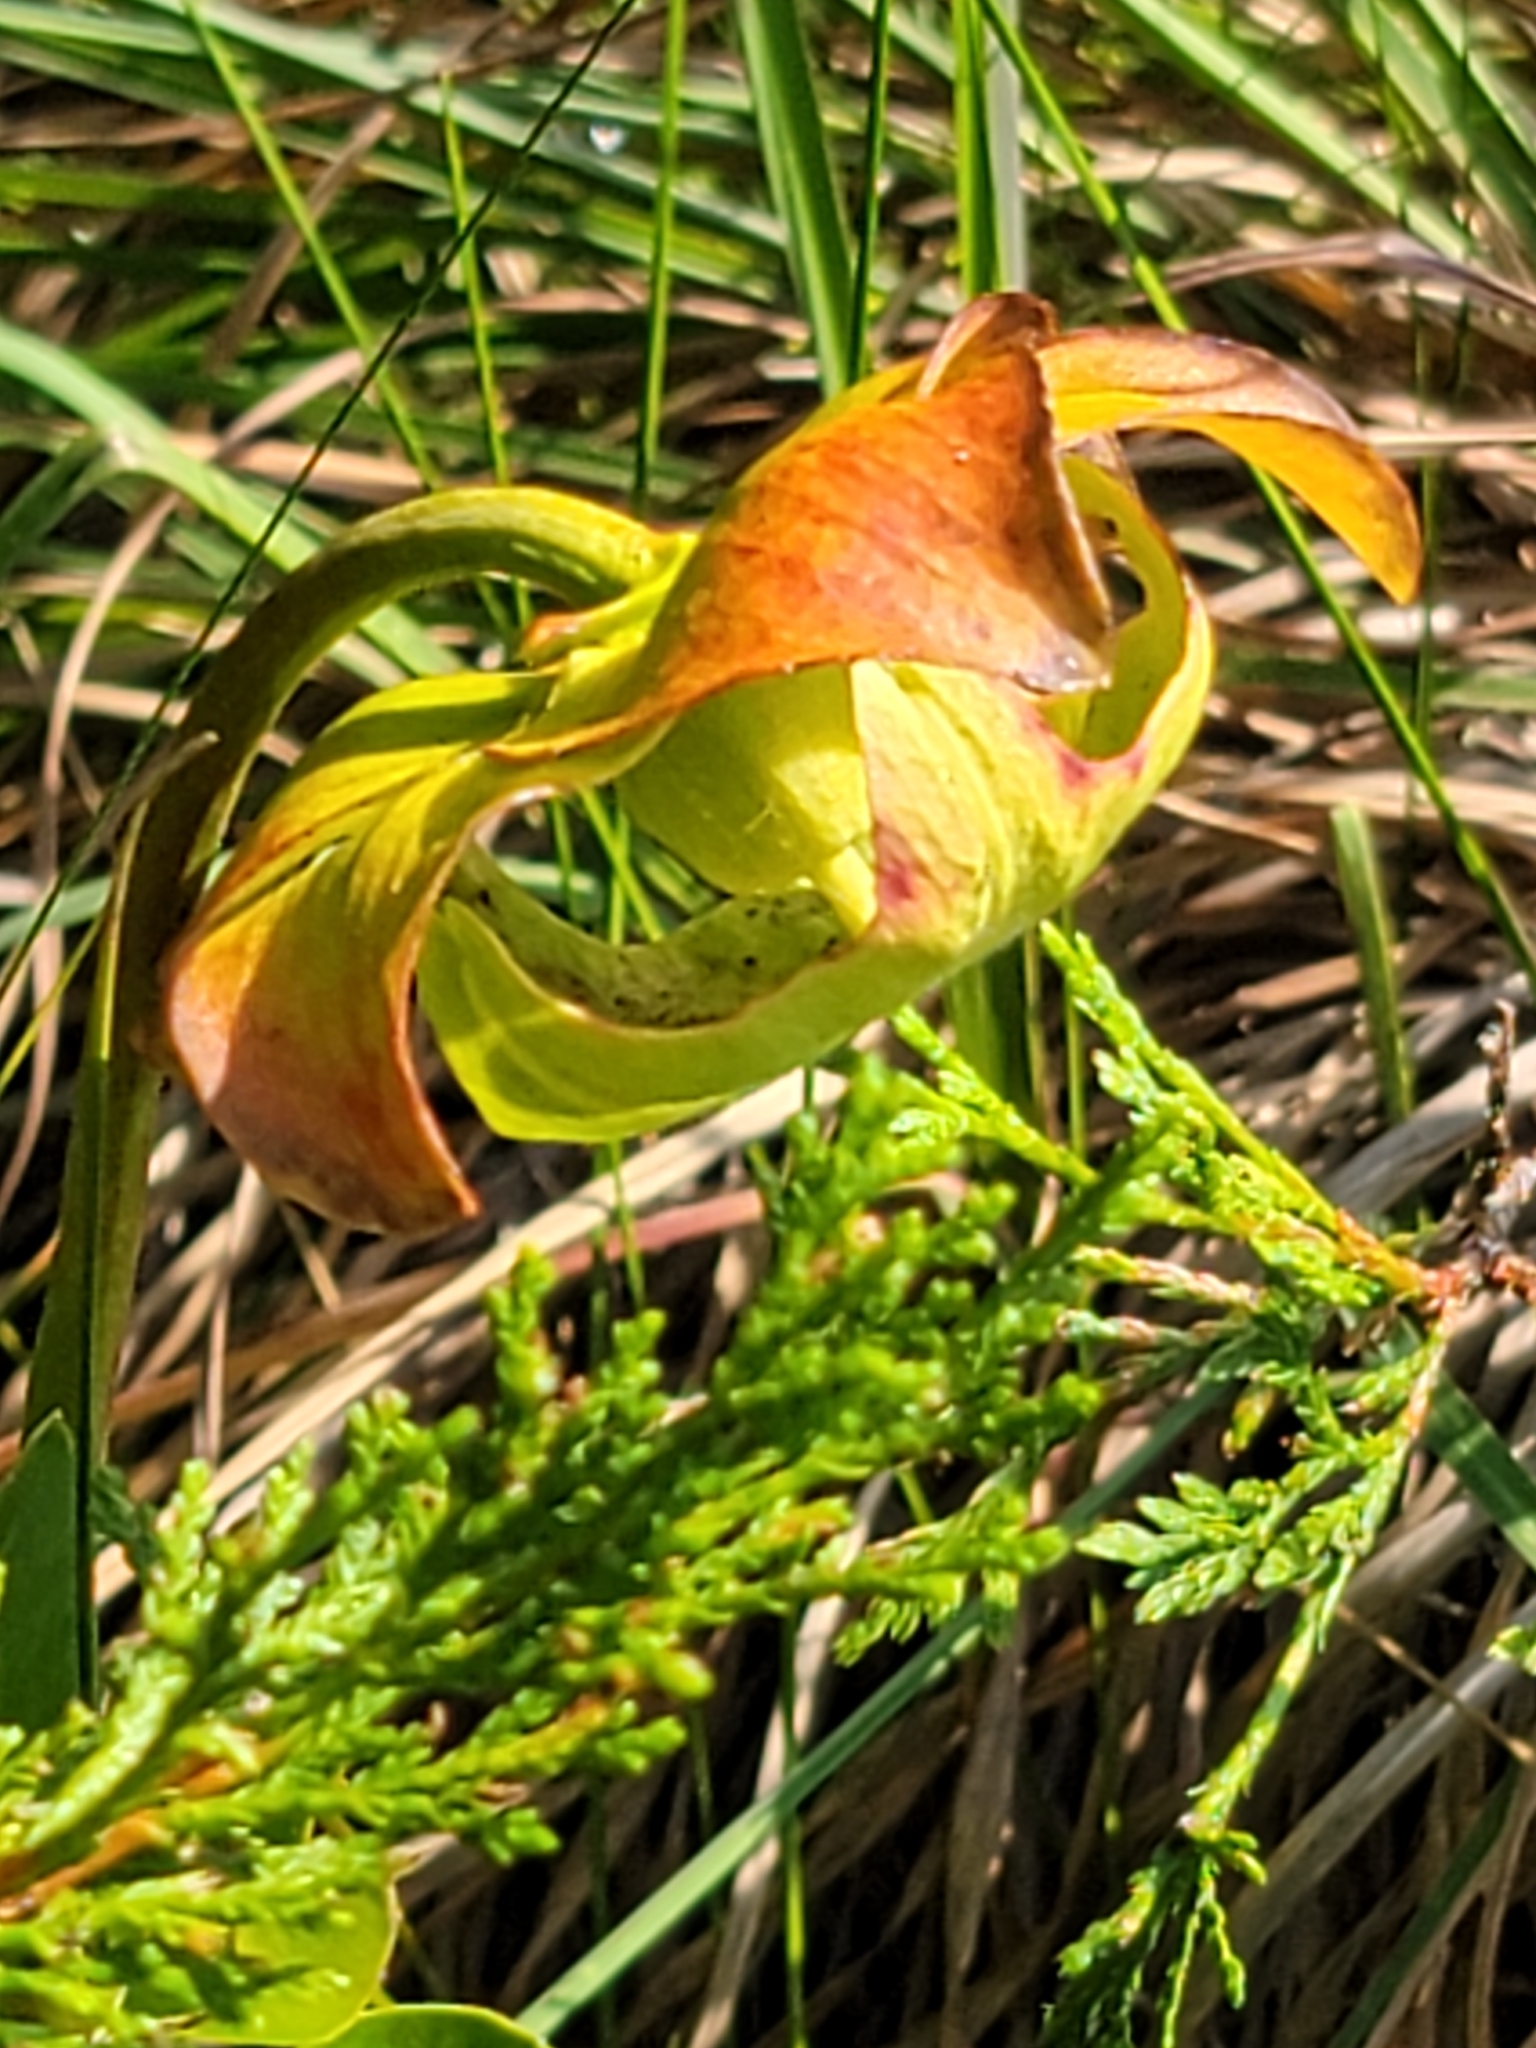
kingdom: Plantae
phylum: Tracheophyta
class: Magnoliopsida
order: Ericales
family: Sarraceniaceae
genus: Sarracenia
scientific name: Sarracenia purpurea
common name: Pitcherplant
